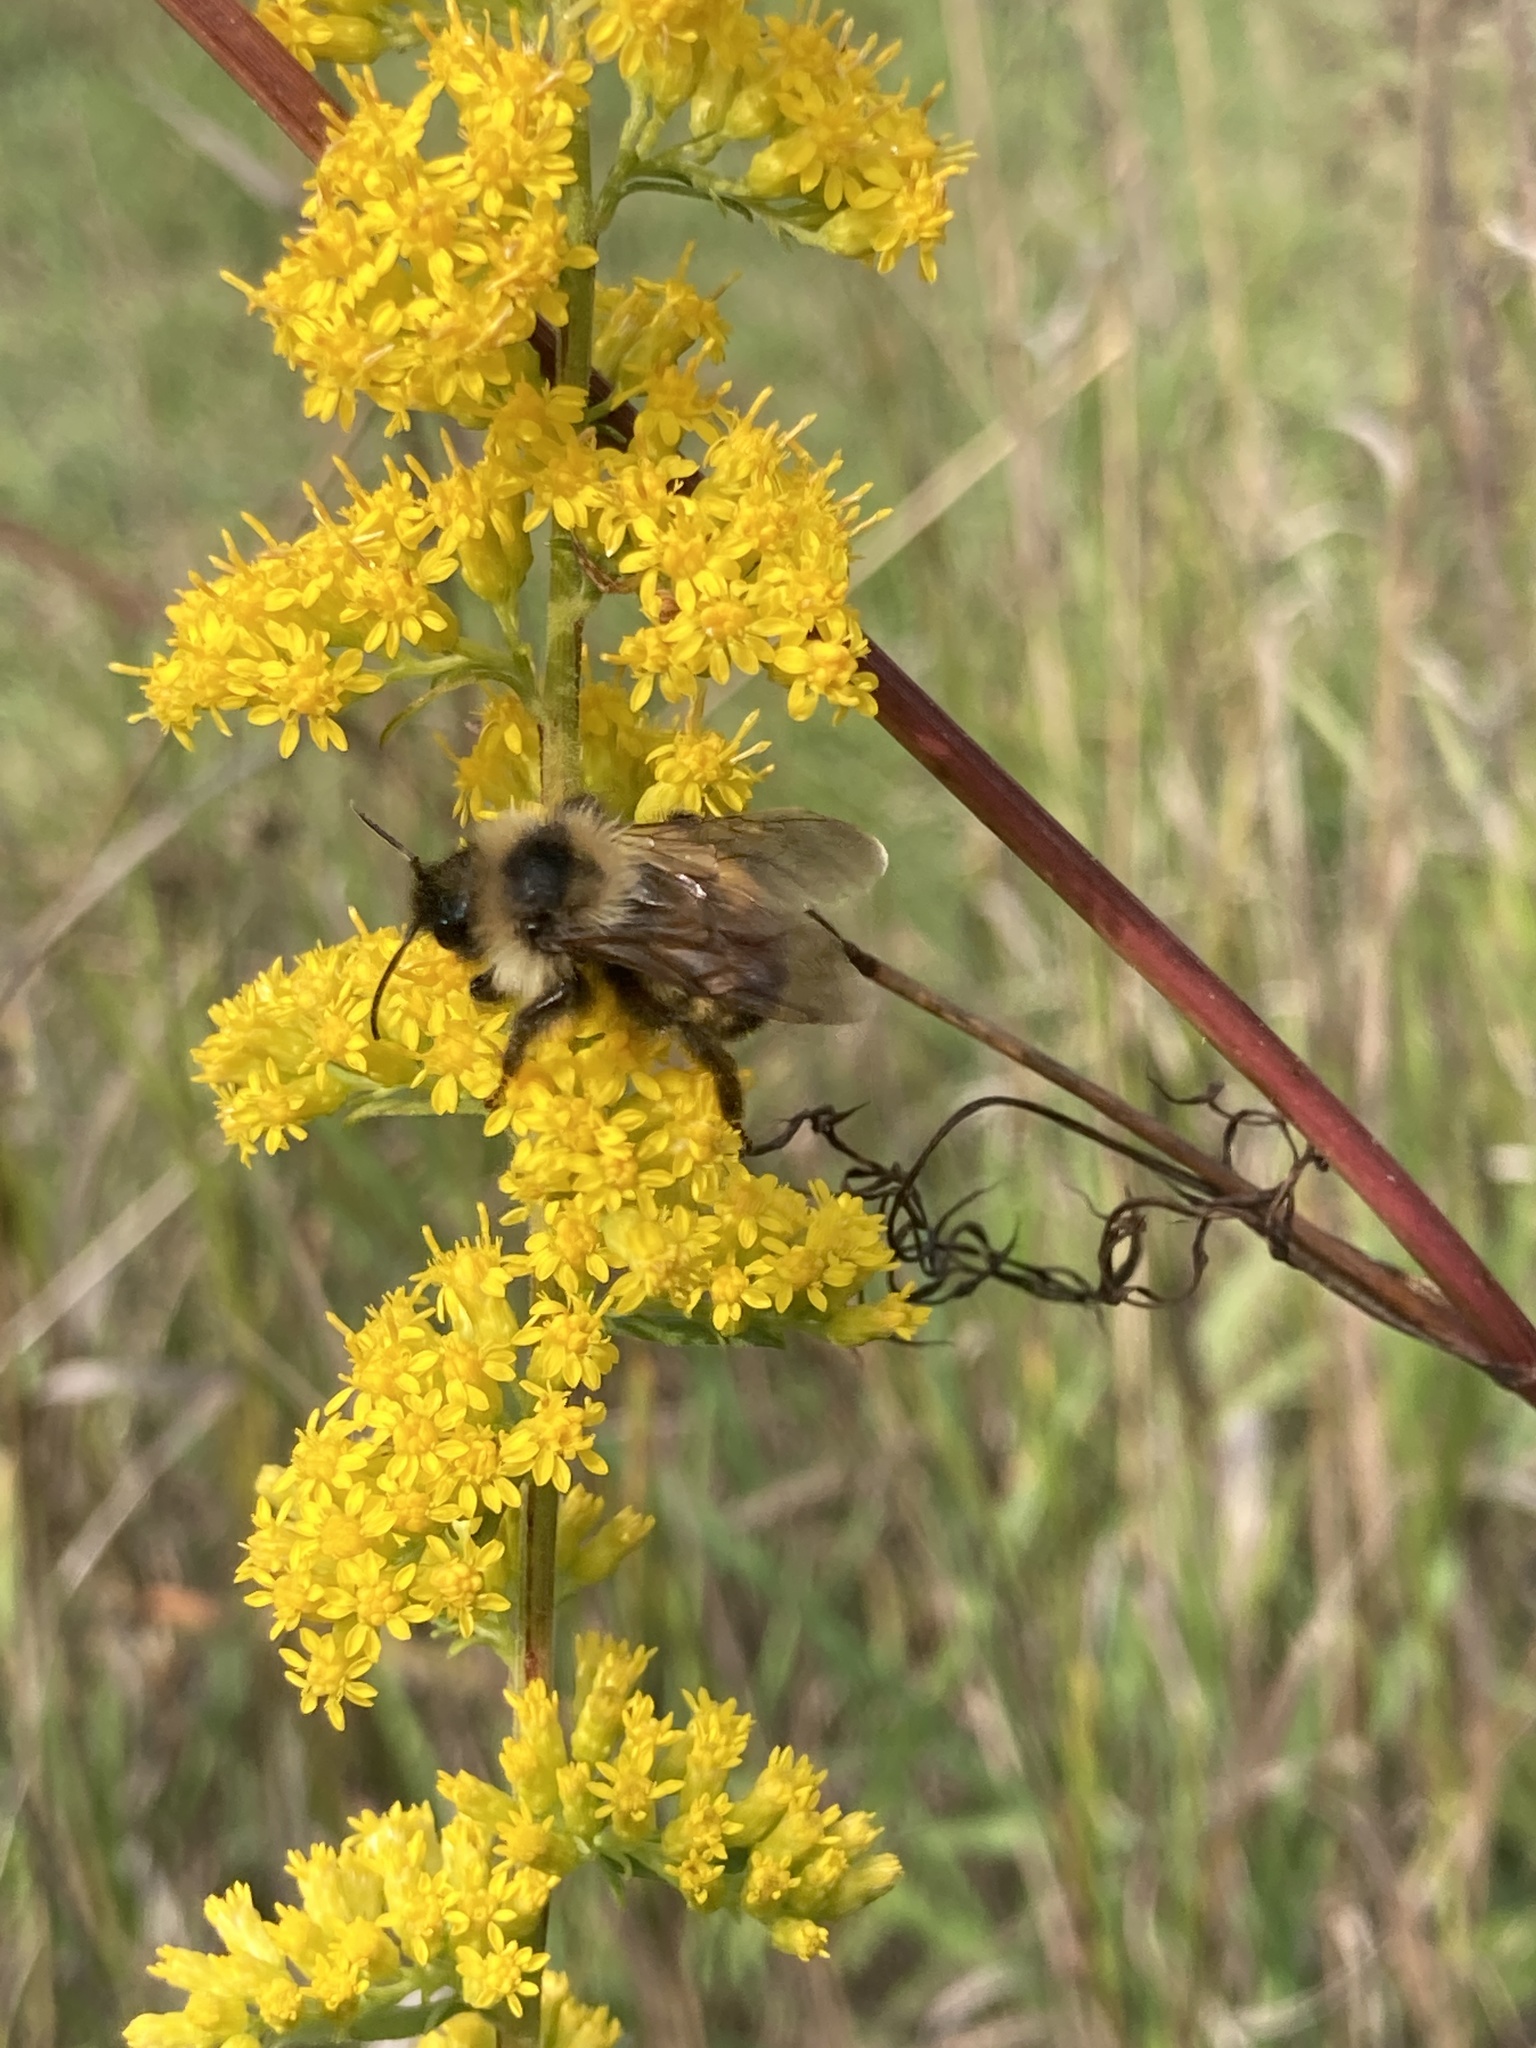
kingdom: Animalia
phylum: Arthropoda
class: Insecta
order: Hymenoptera
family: Apidae
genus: Bombus
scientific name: Bombus citrinus
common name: Lemon cuckoo bumble bee
